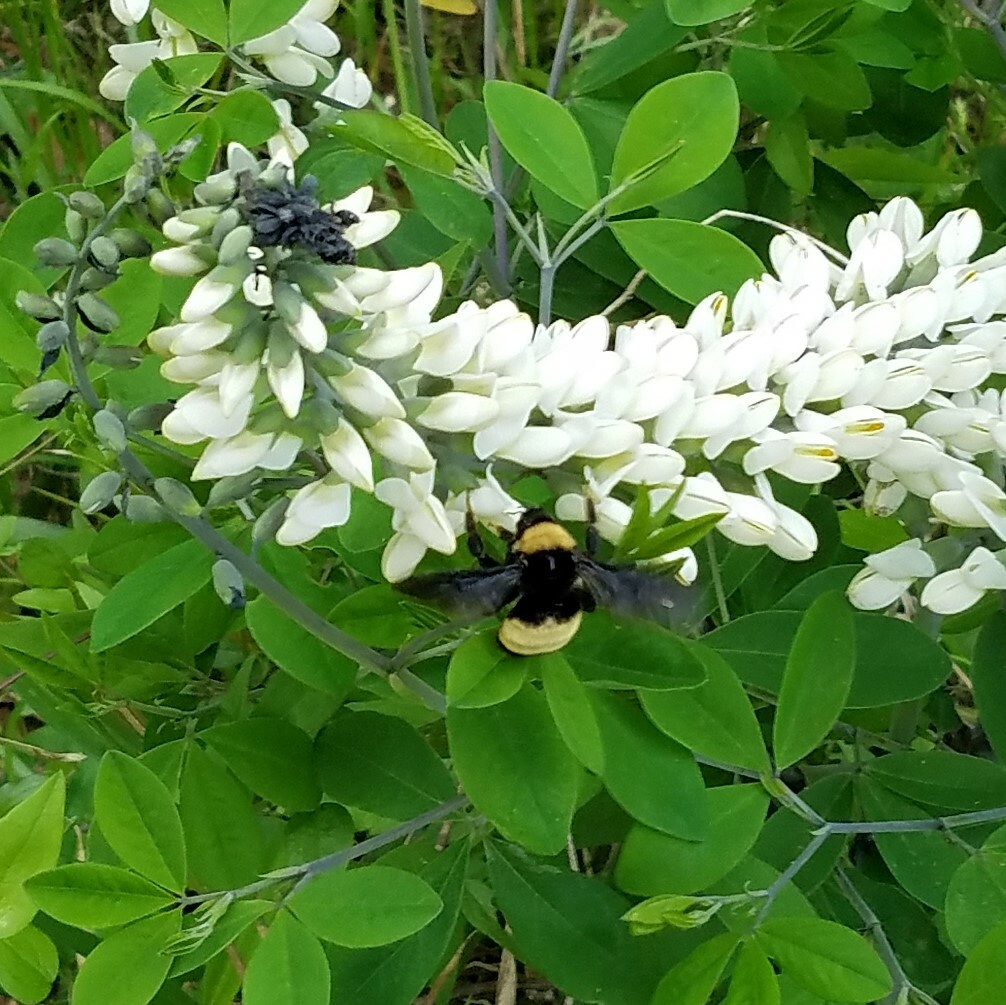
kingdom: Animalia
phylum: Arthropoda
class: Insecta
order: Hymenoptera
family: Apidae
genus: Bombus
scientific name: Bombus pensylvanicus
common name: Bumble bee
